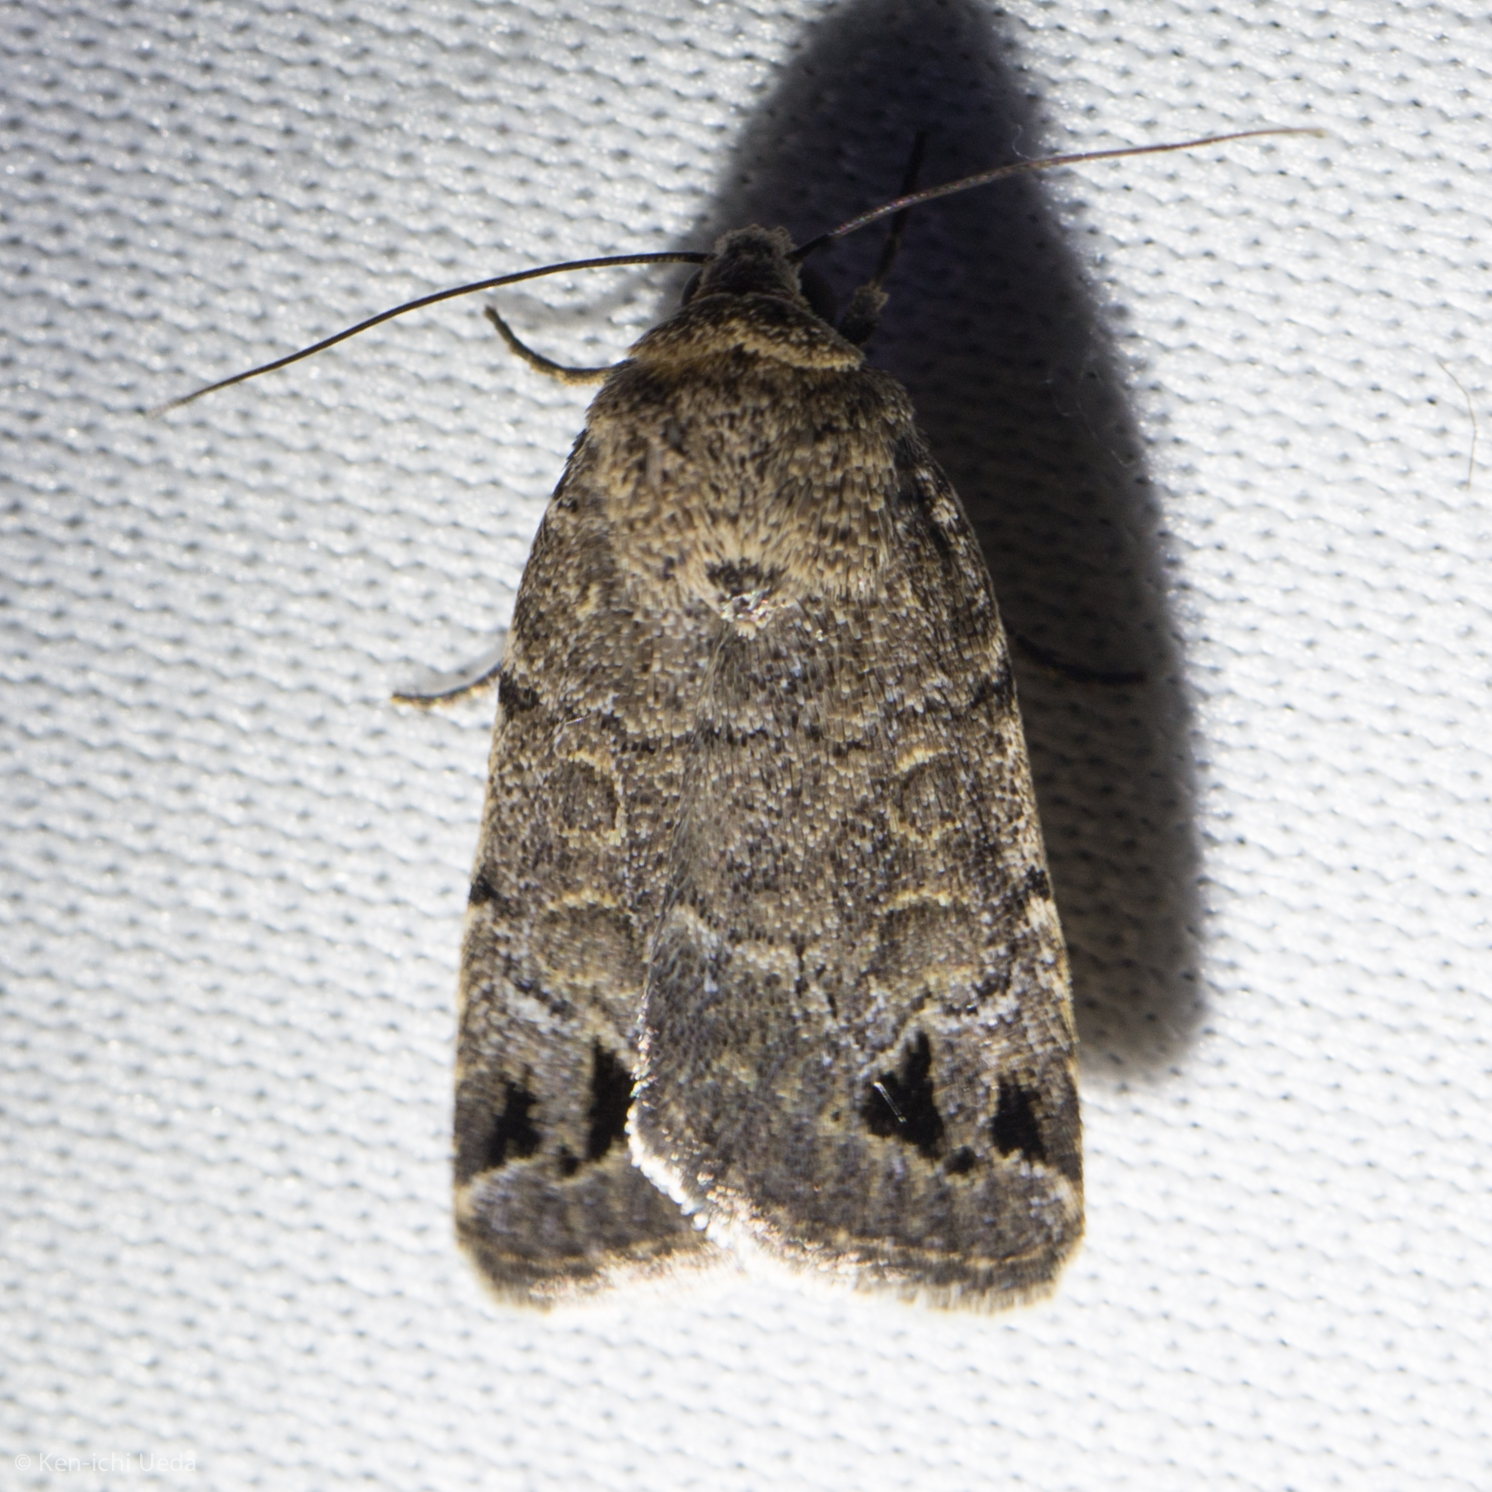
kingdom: Animalia
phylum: Arthropoda
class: Insecta
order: Lepidoptera
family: Noctuidae
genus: Anorthodes
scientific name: Anorthodes triquetra
